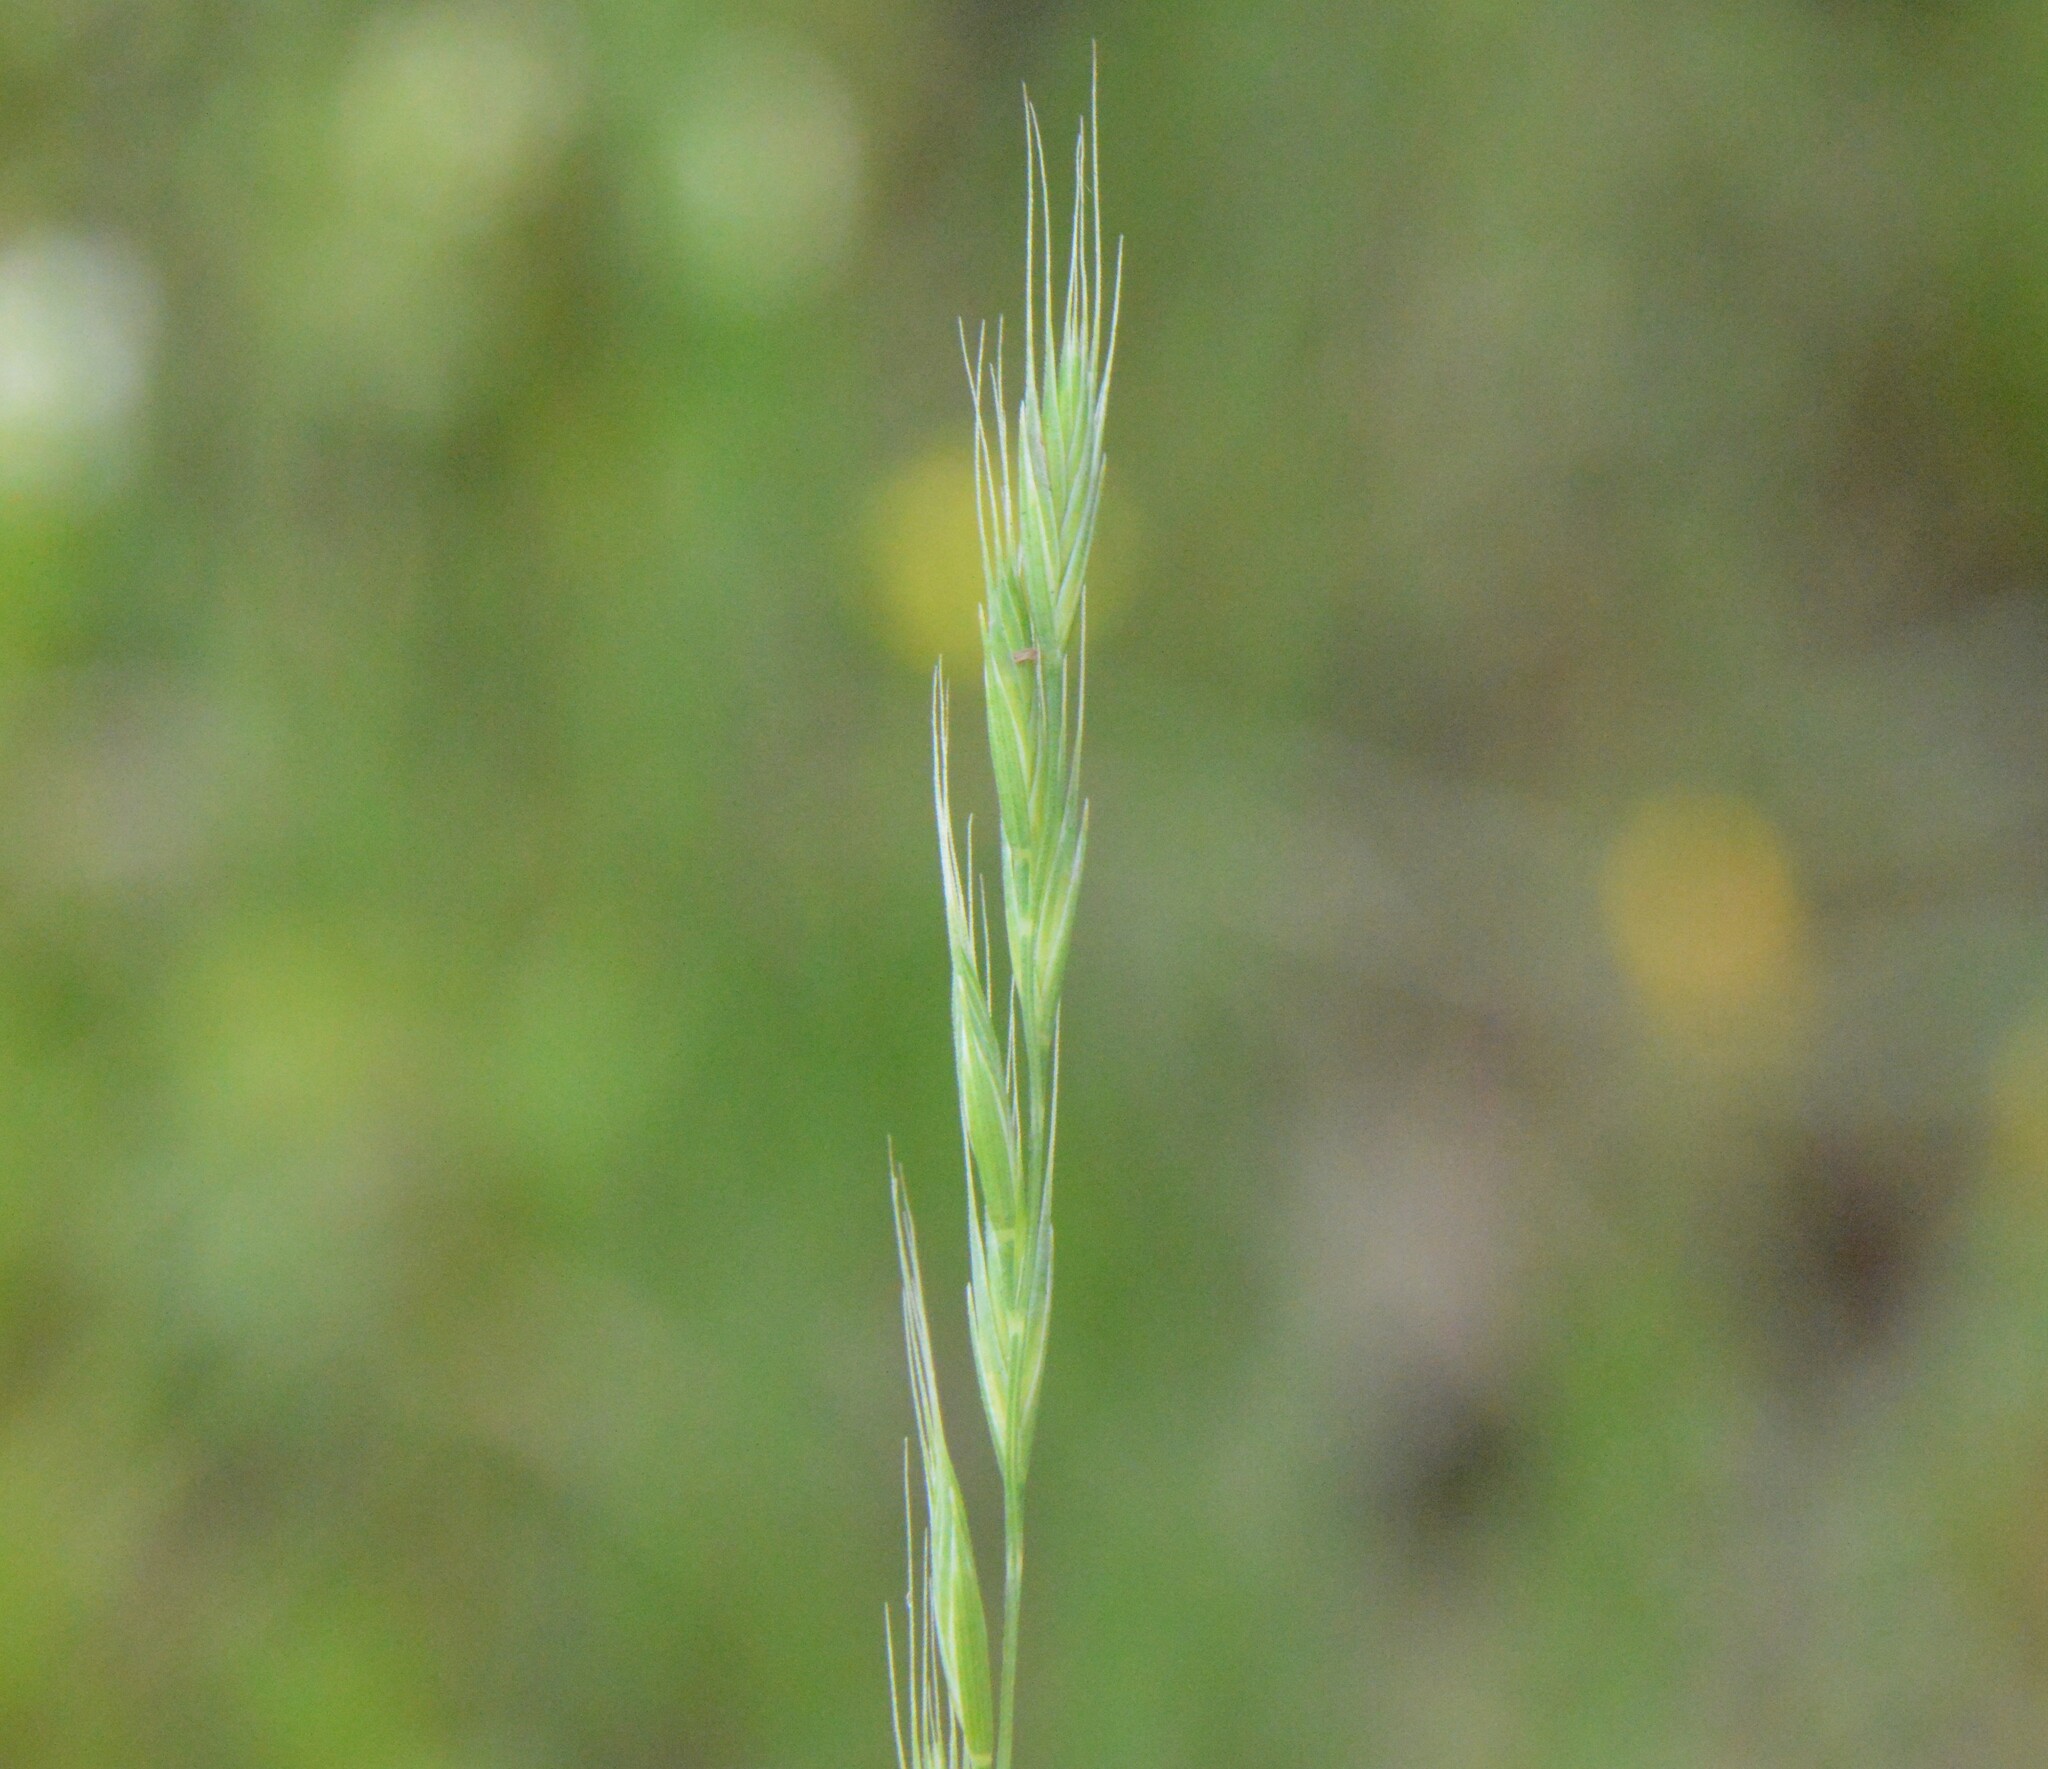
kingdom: Plantae
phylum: Tracheophyta
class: Liliopsida
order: Poales
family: Poaceae
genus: Festuca
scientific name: Festuca octoflora
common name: Sixweeks grass
